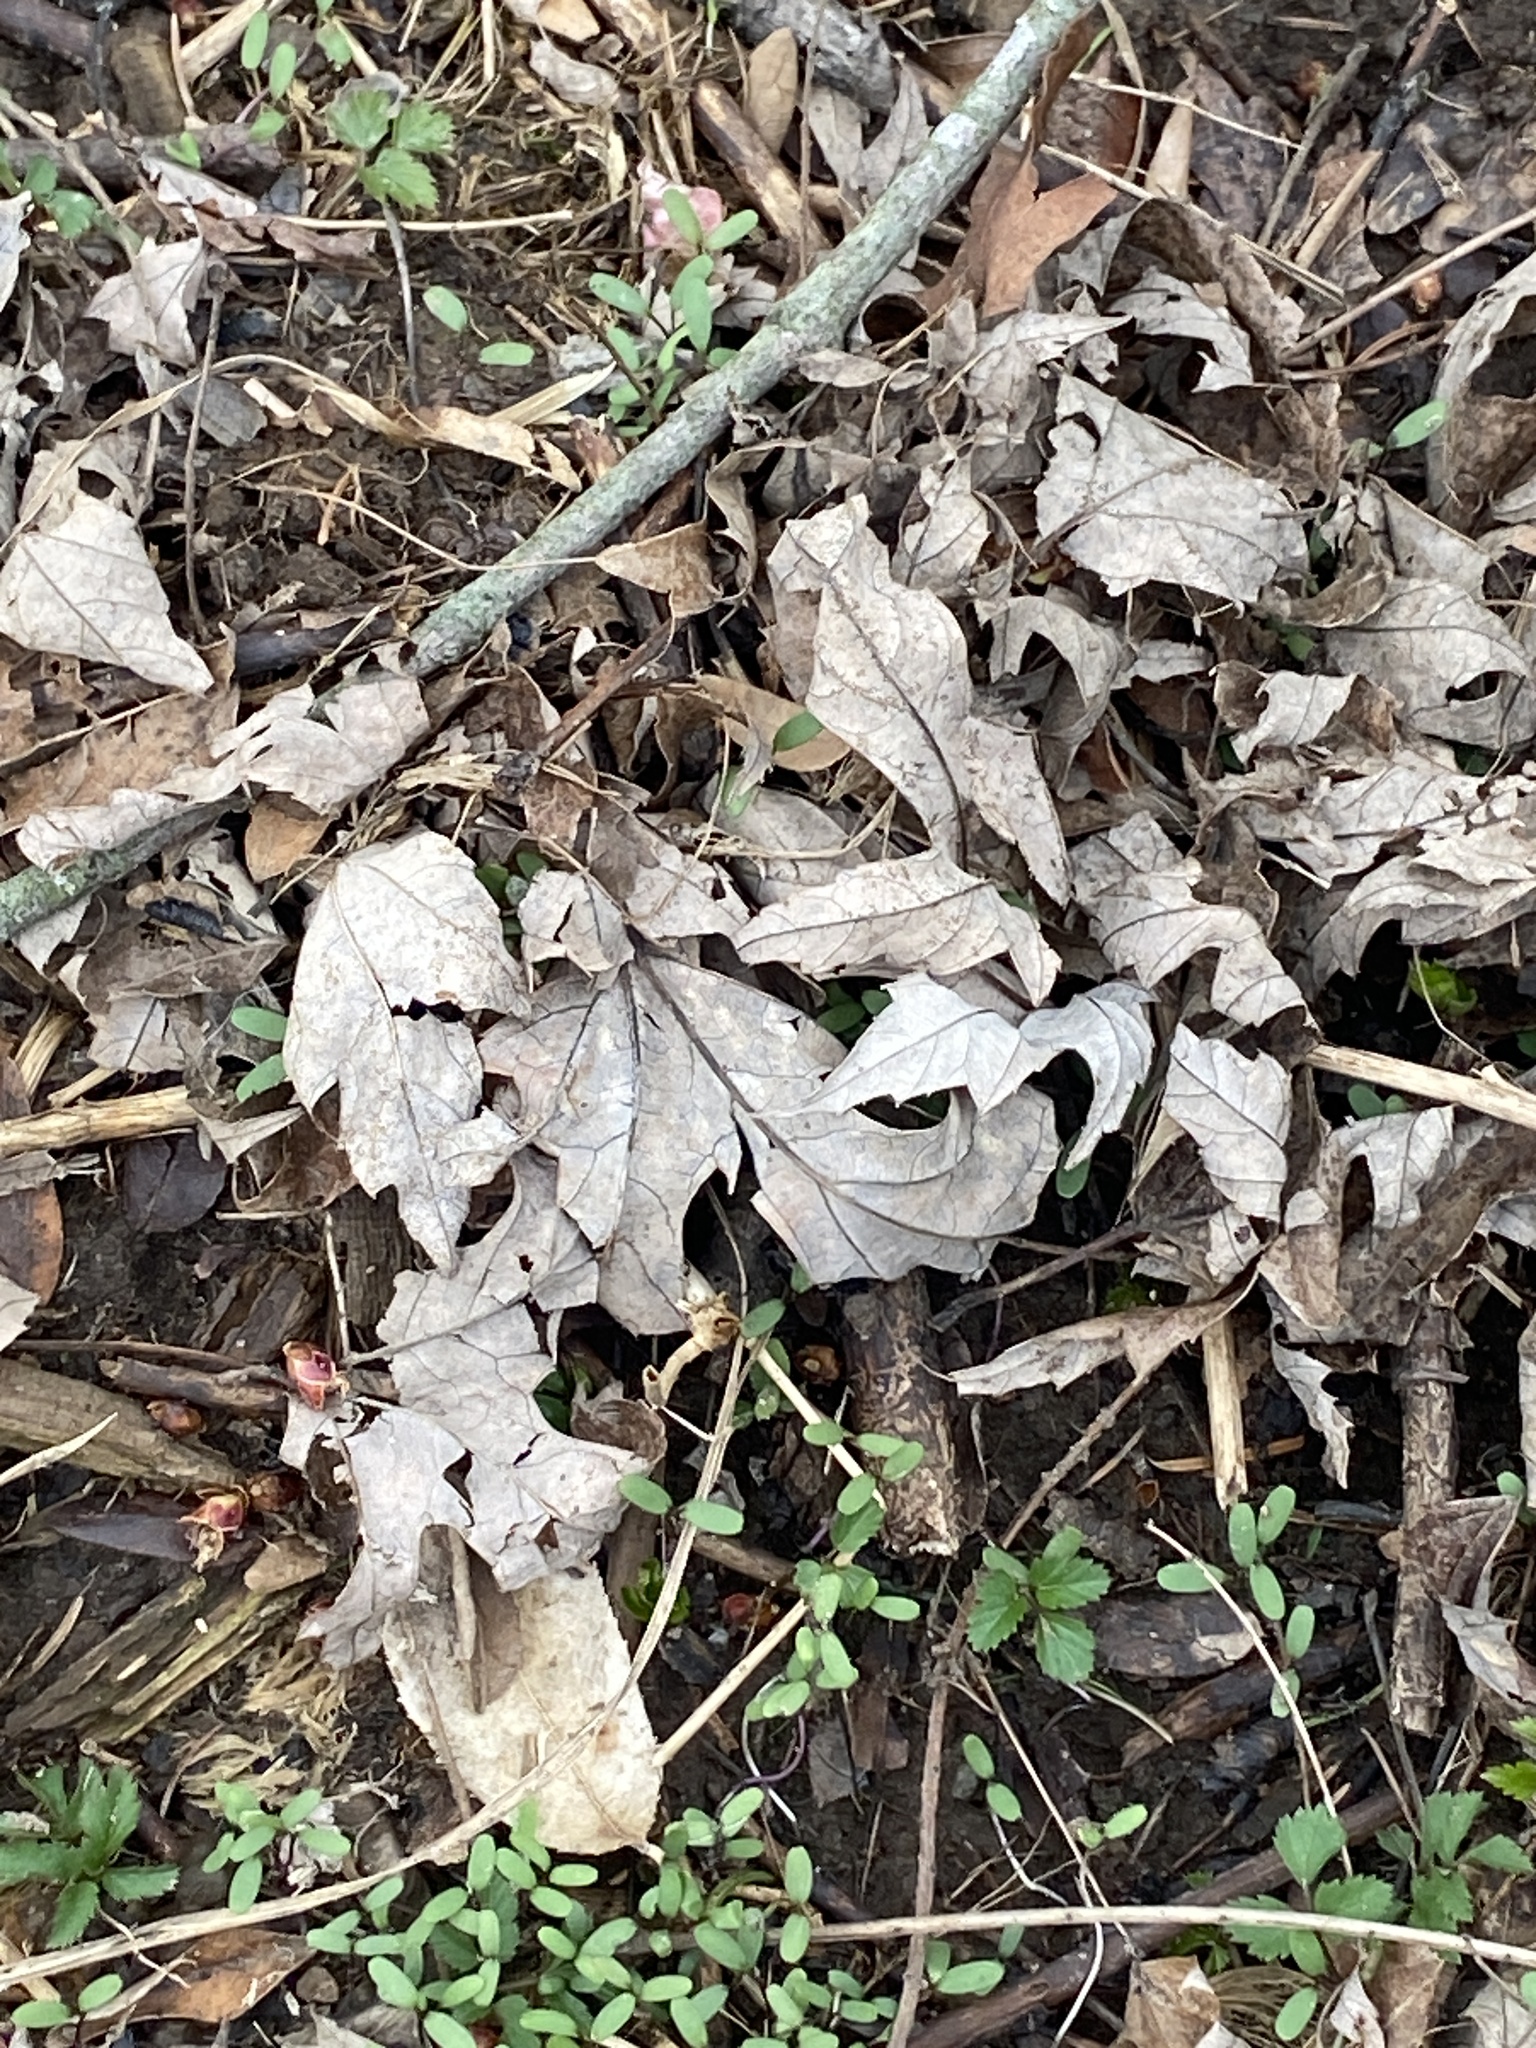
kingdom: Plantae
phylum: Tracheophyta
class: Magnoliopsida
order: Sapindales
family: Sapindaceae
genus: Acer
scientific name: Acer saccharinum
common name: Silver maple
